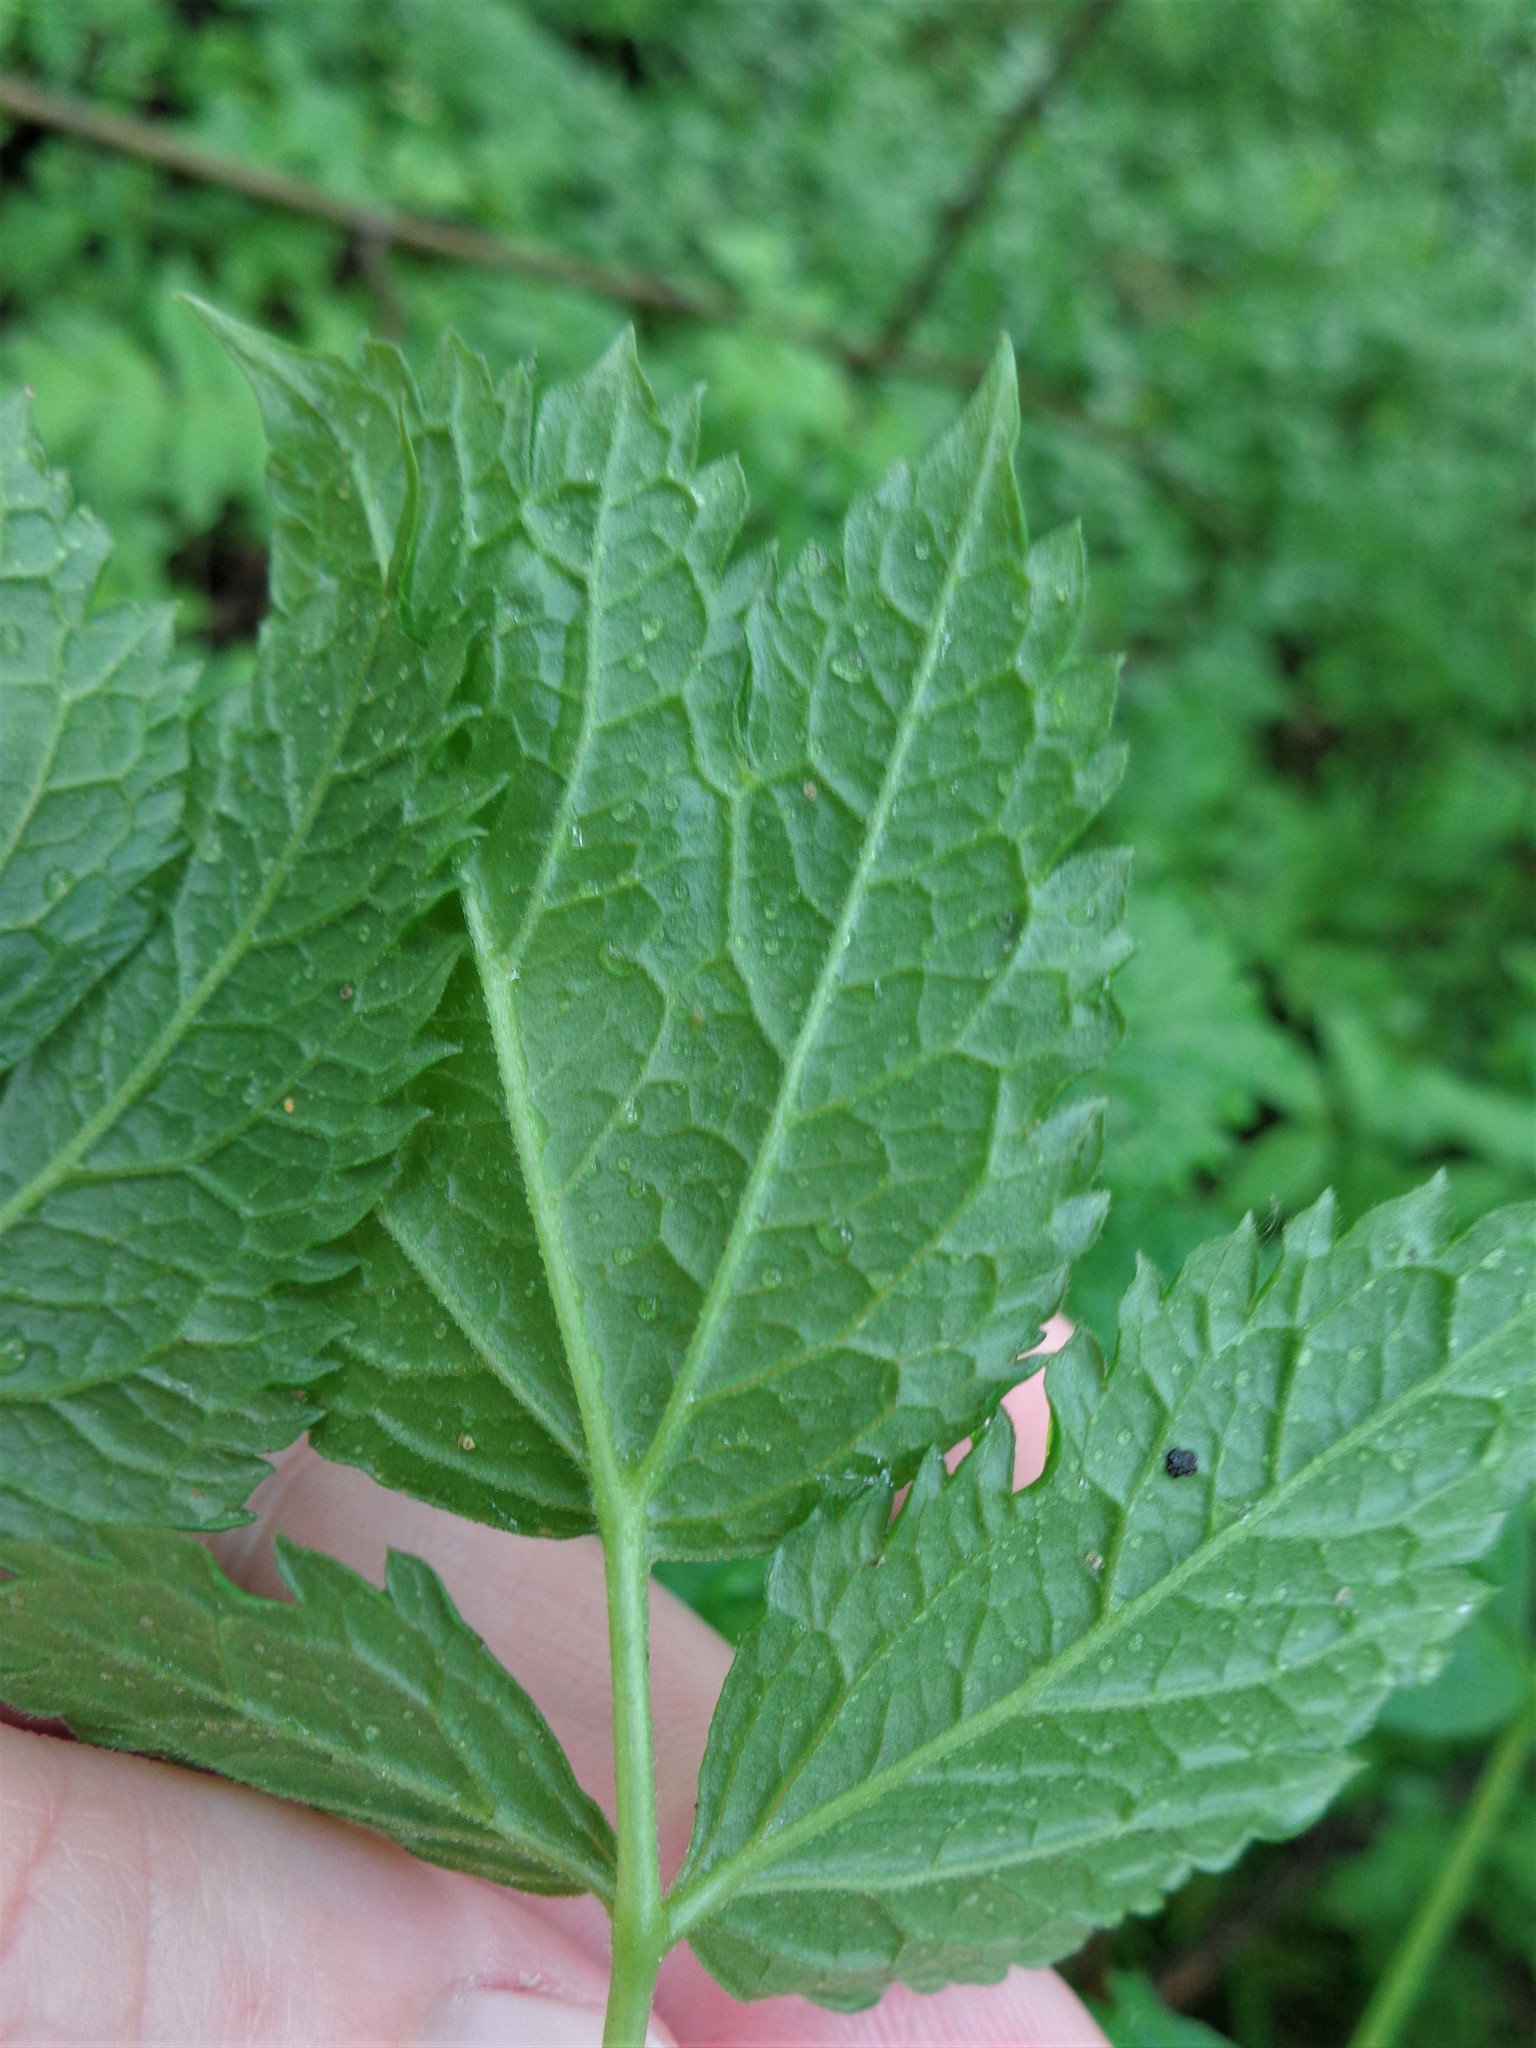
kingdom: Plantae
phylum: Tracheophyta
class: Magnoliopsida
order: Ranunculales
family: Ranunculaceae
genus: Actaea
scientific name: Actaea spicata
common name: Baneberry
